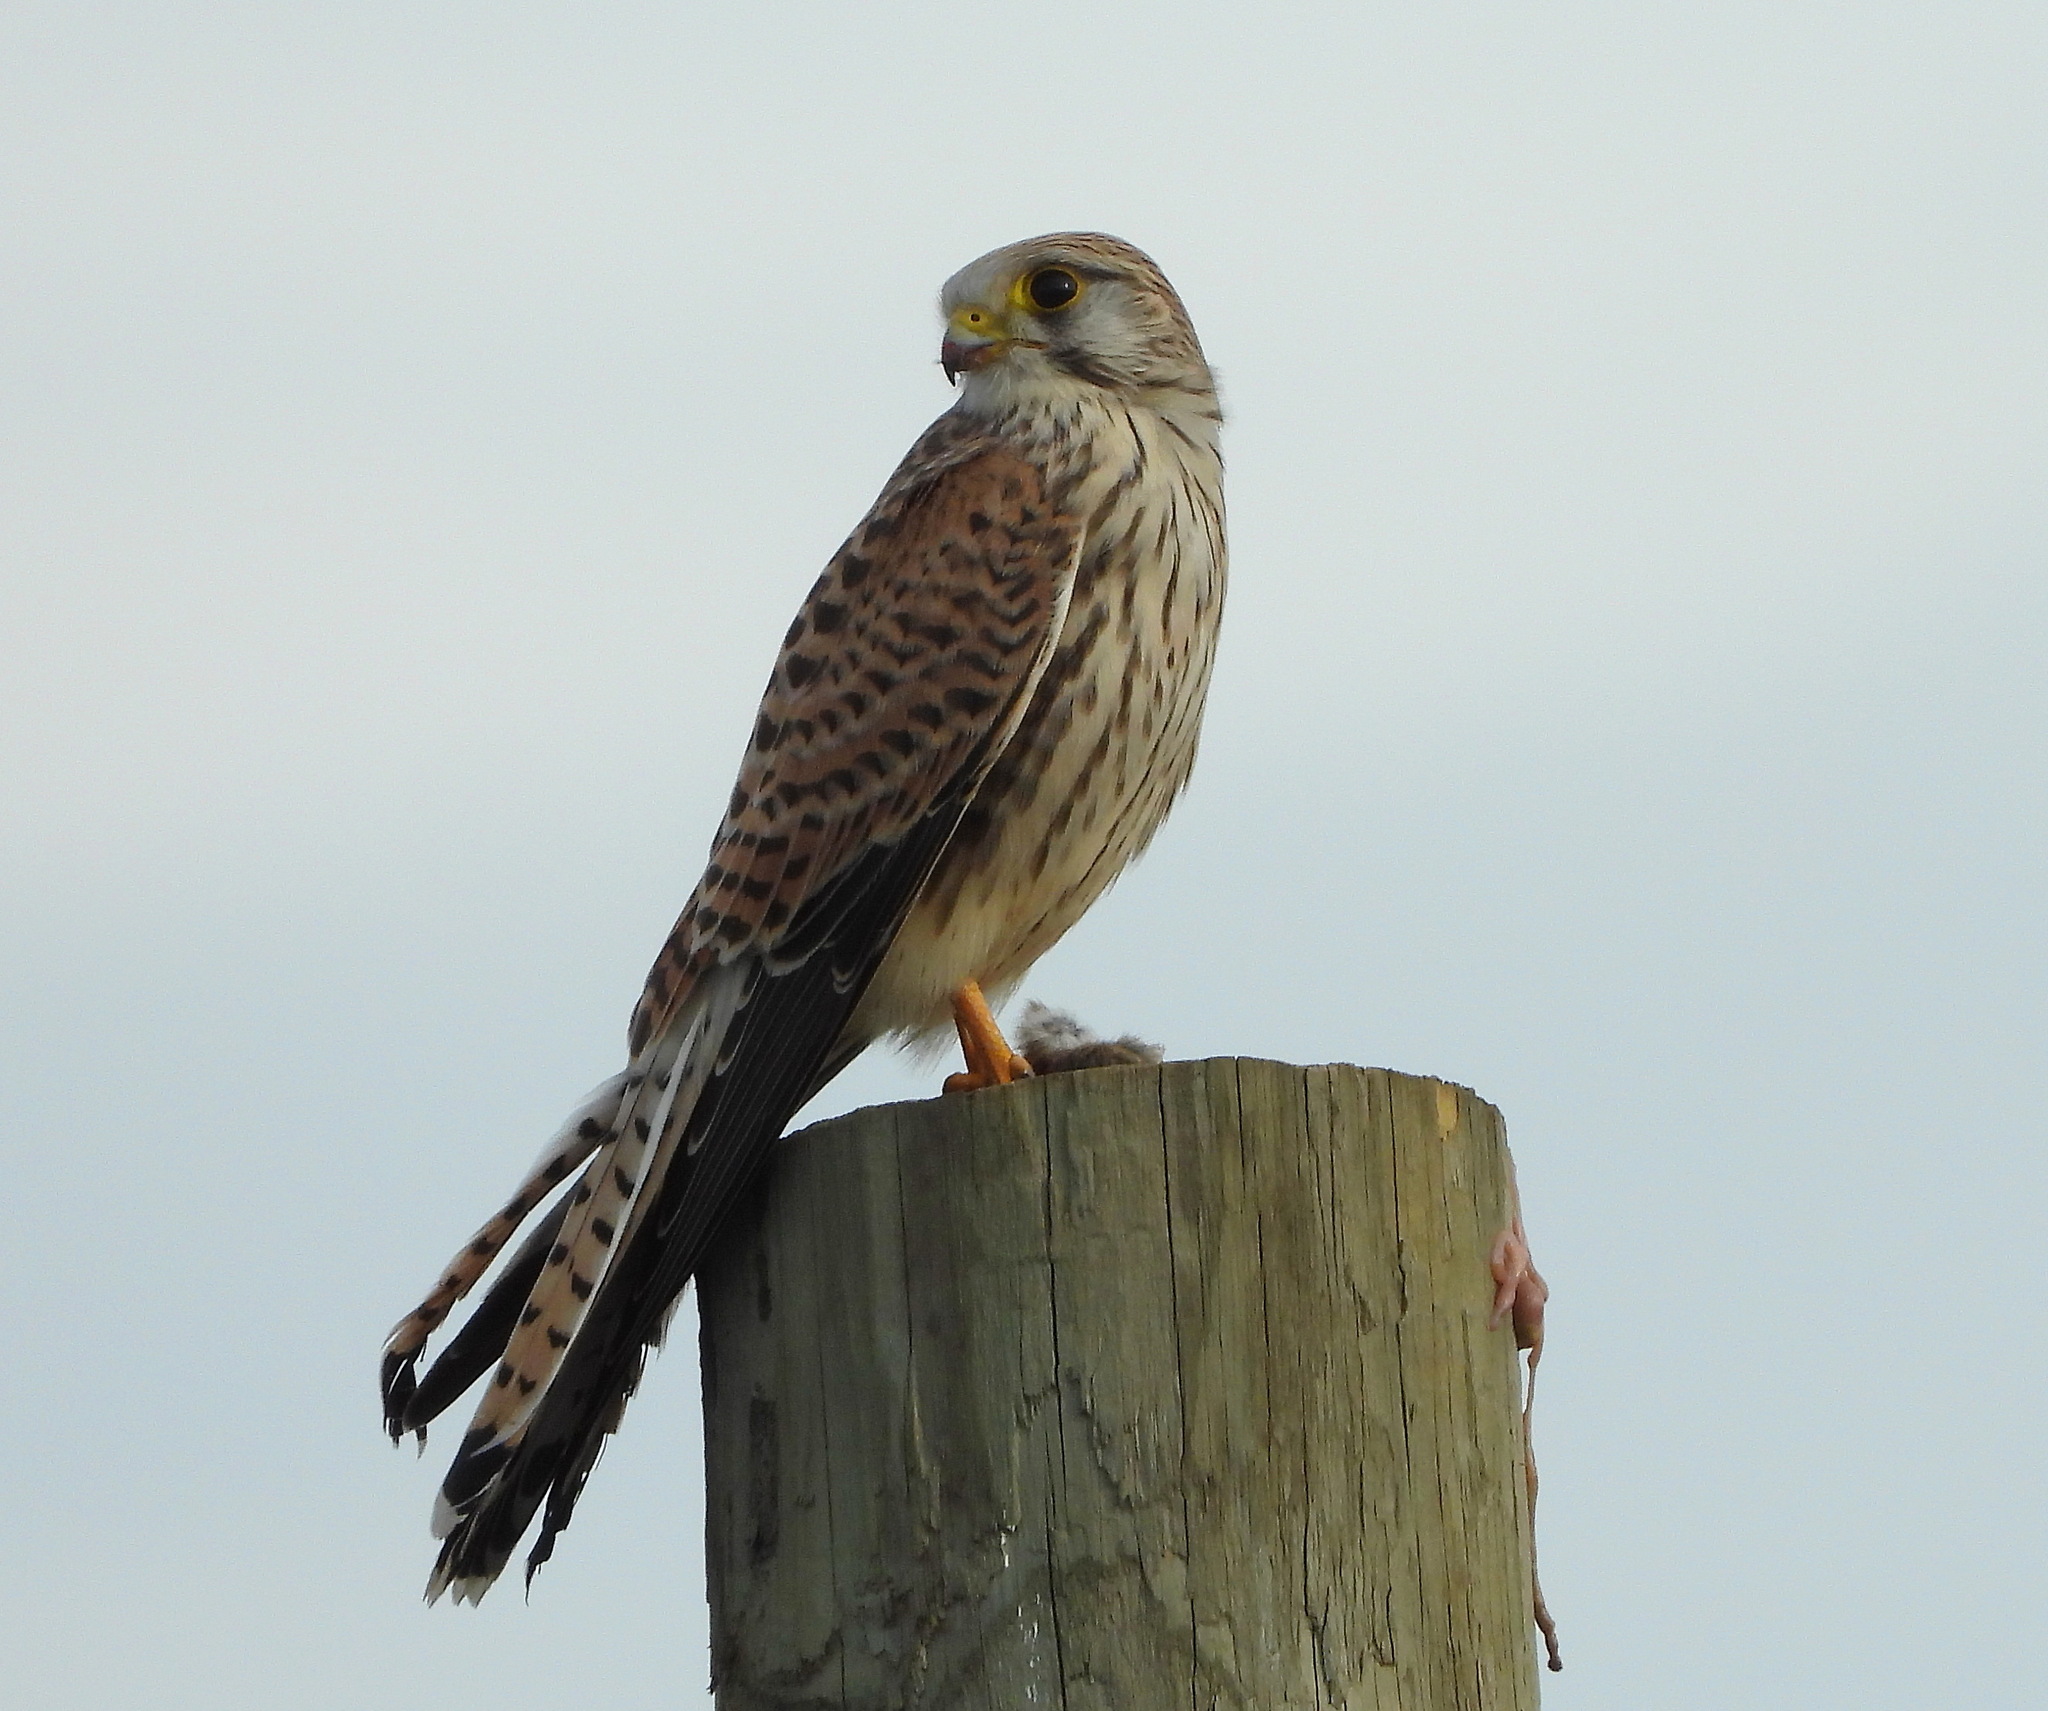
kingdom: Animalia
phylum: Chordata
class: Aves
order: Falconiformes
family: Falconidae
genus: Falco
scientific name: Falco tinnunculus
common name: Common kestrel
